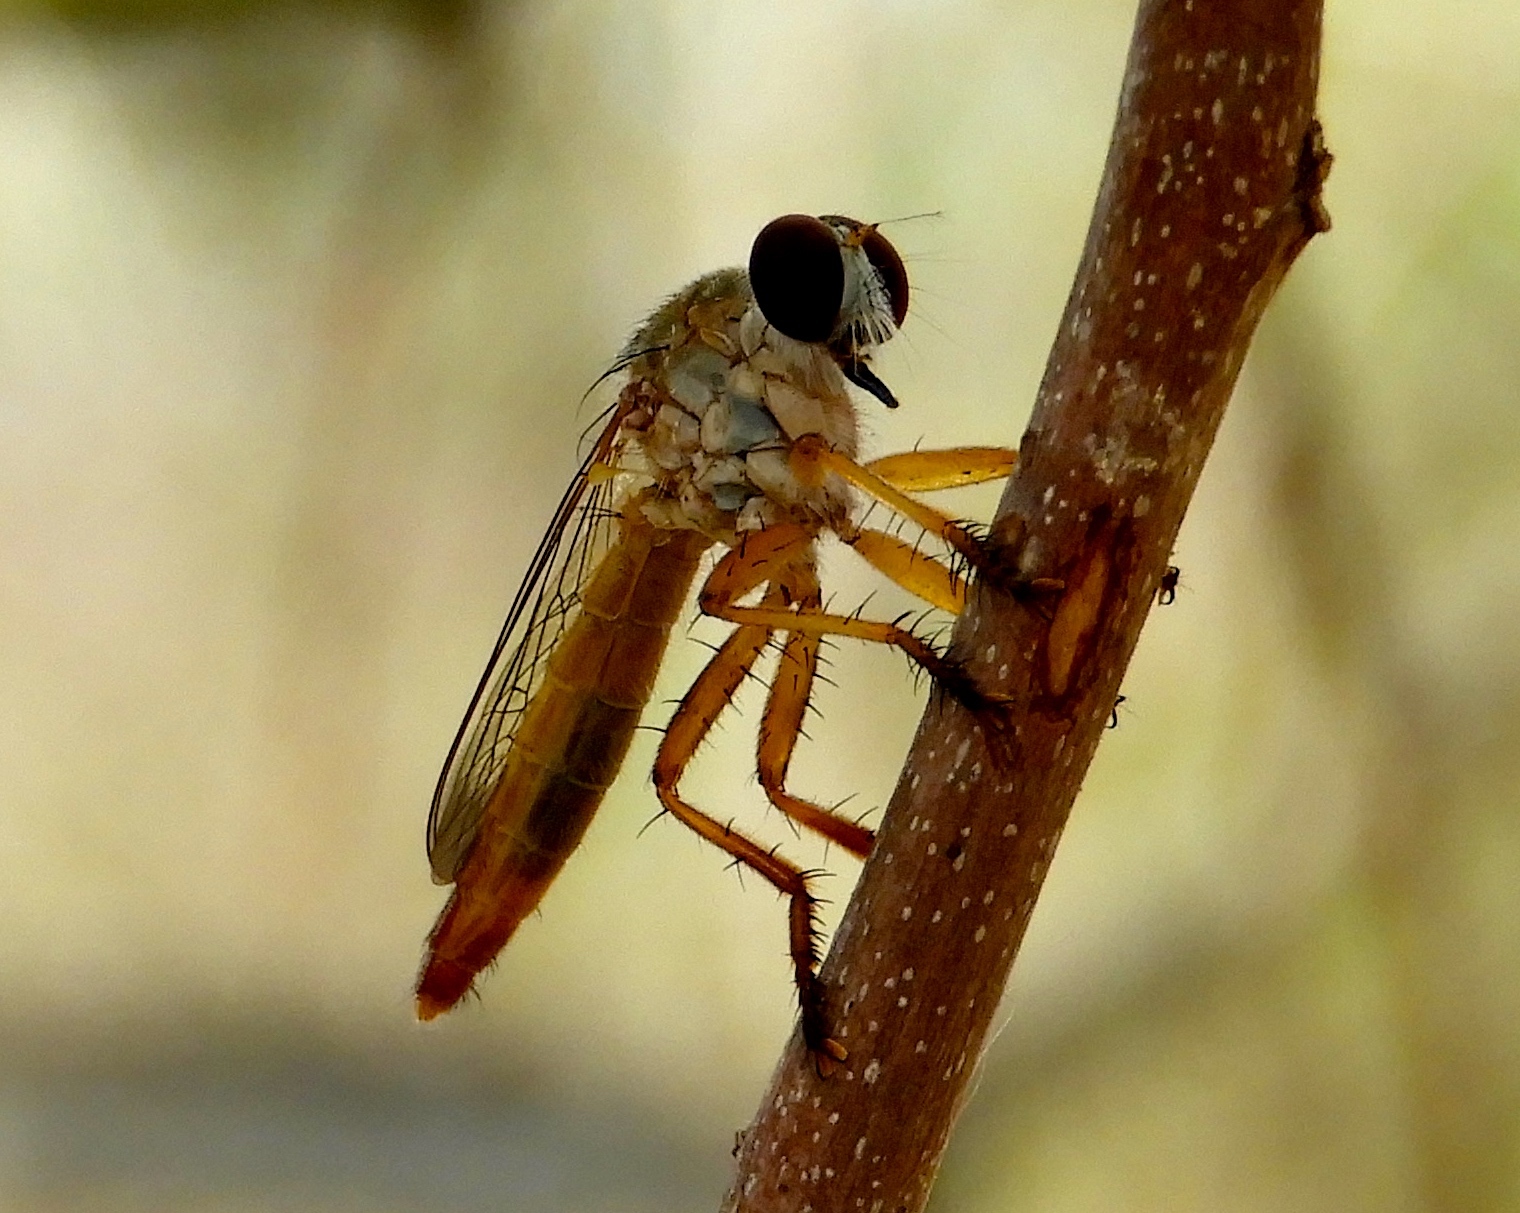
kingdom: Animalia
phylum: Arthropoda
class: Insecta
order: Diptera
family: Asilidae
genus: Ommatius
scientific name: Ommatius
